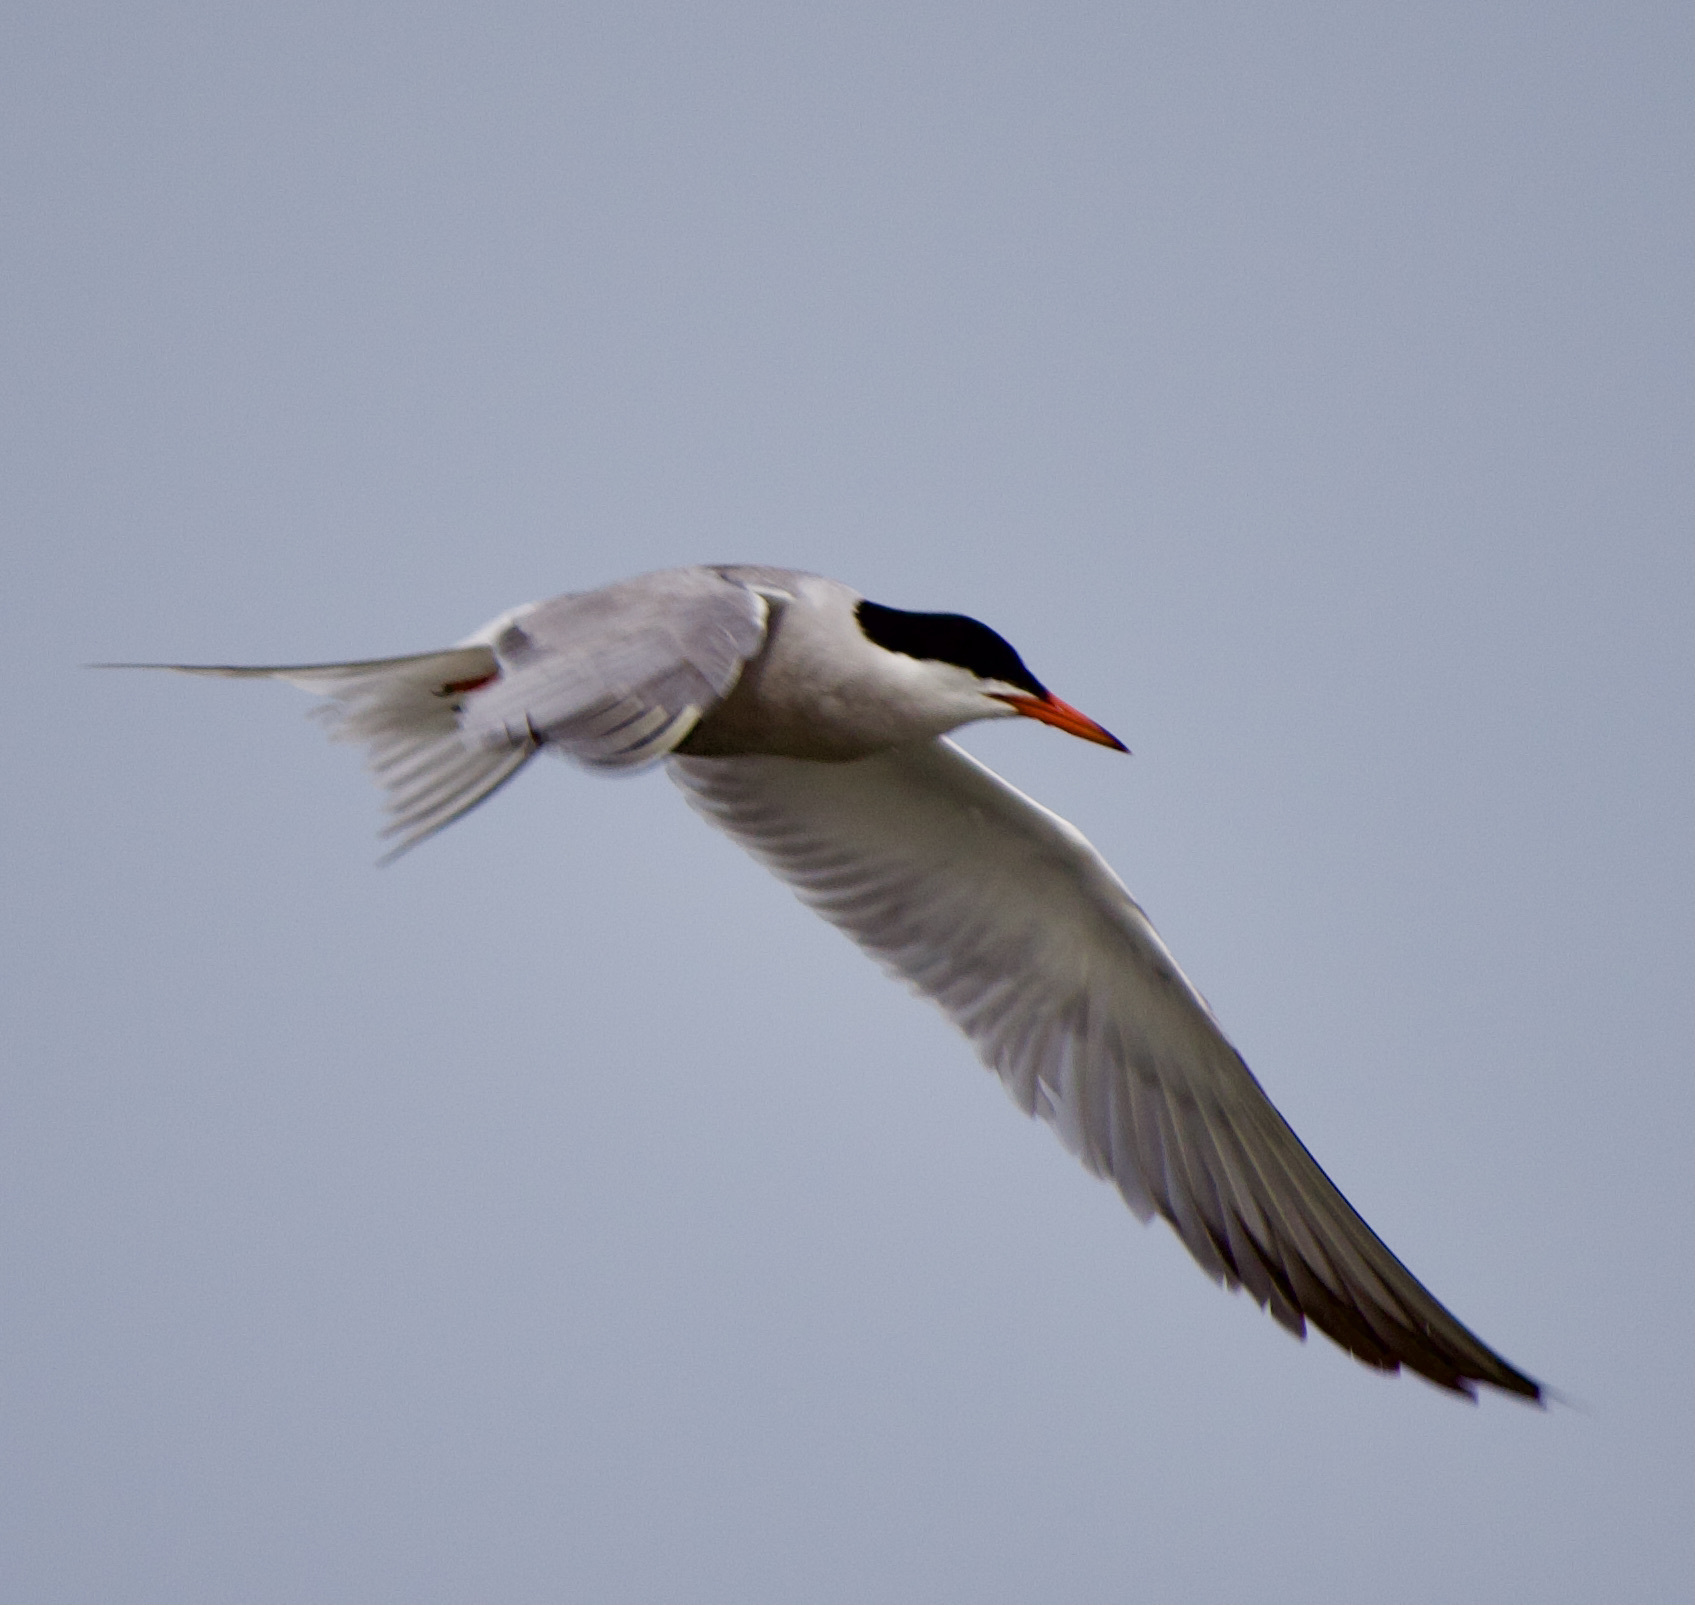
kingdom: Animalia
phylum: Chordata
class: Aves
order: Charadriiformes
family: Laridae
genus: Sterna
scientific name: Sterna hirundo
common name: Common tern
